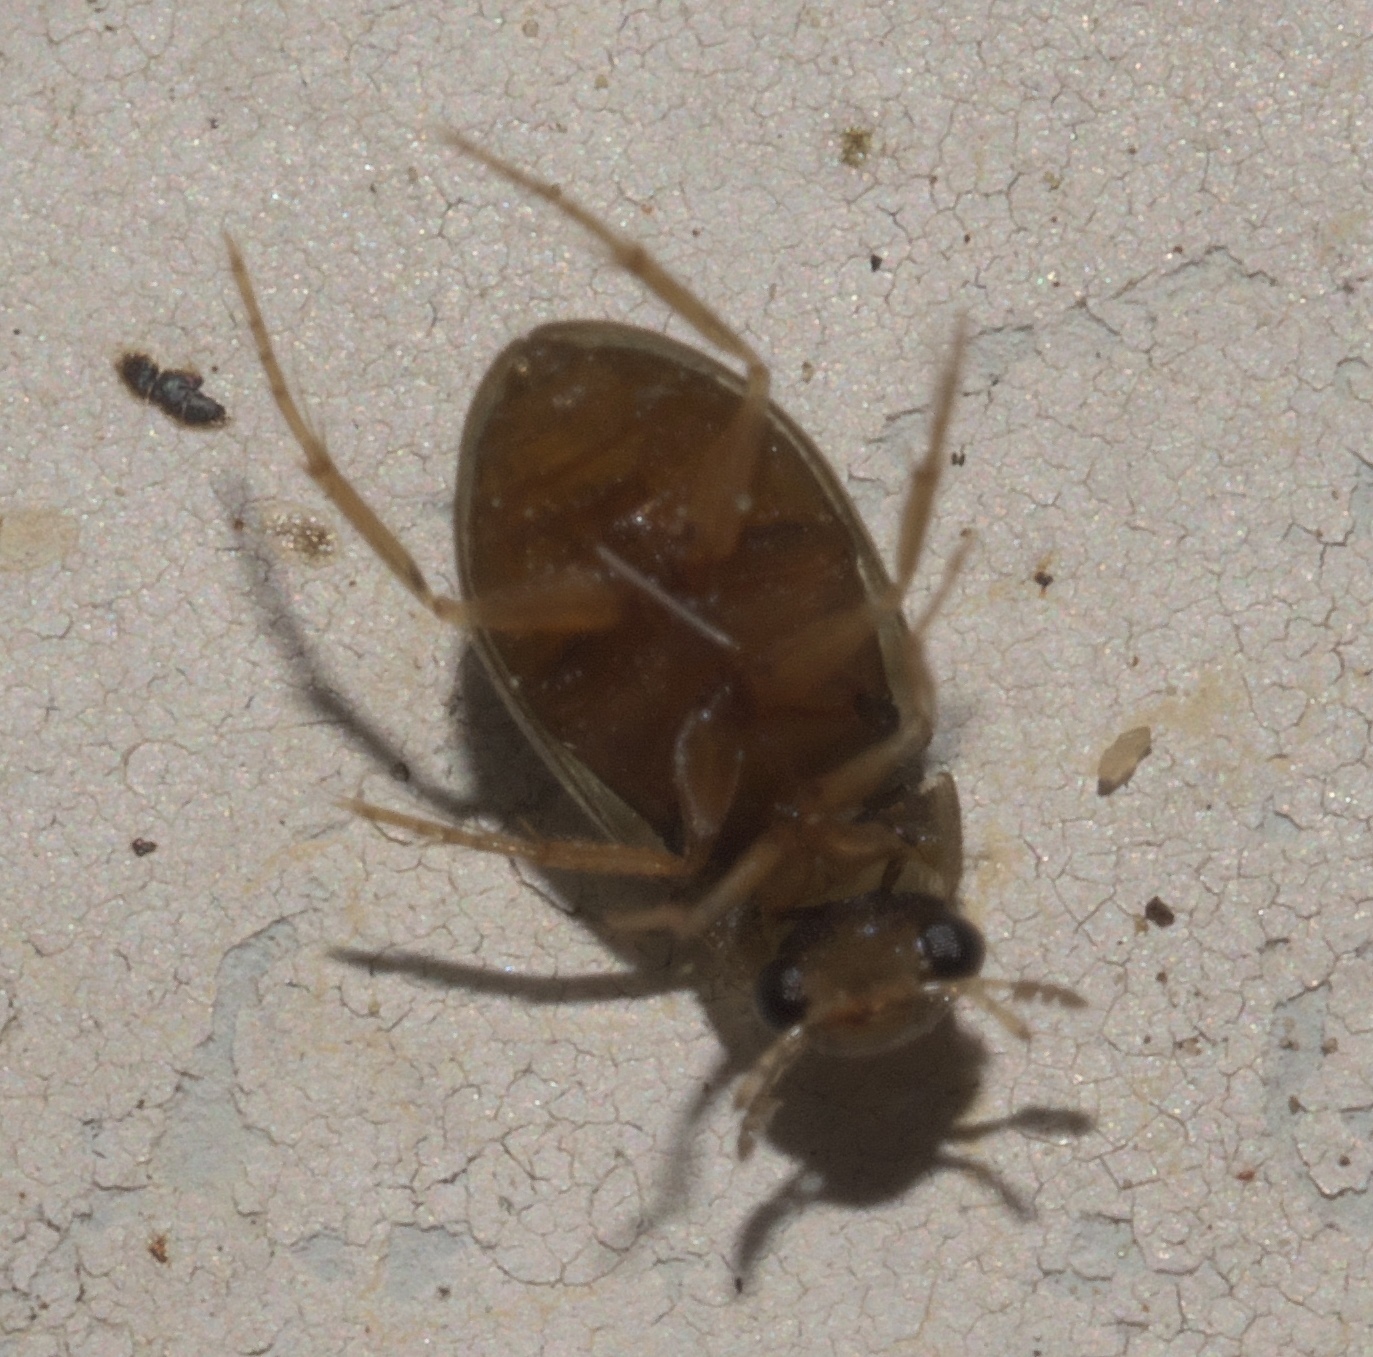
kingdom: Animalia
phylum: Arthropoda
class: Insecta
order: Coleoptera
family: Hydrophilidae
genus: Berosus
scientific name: Berosus exiguus
